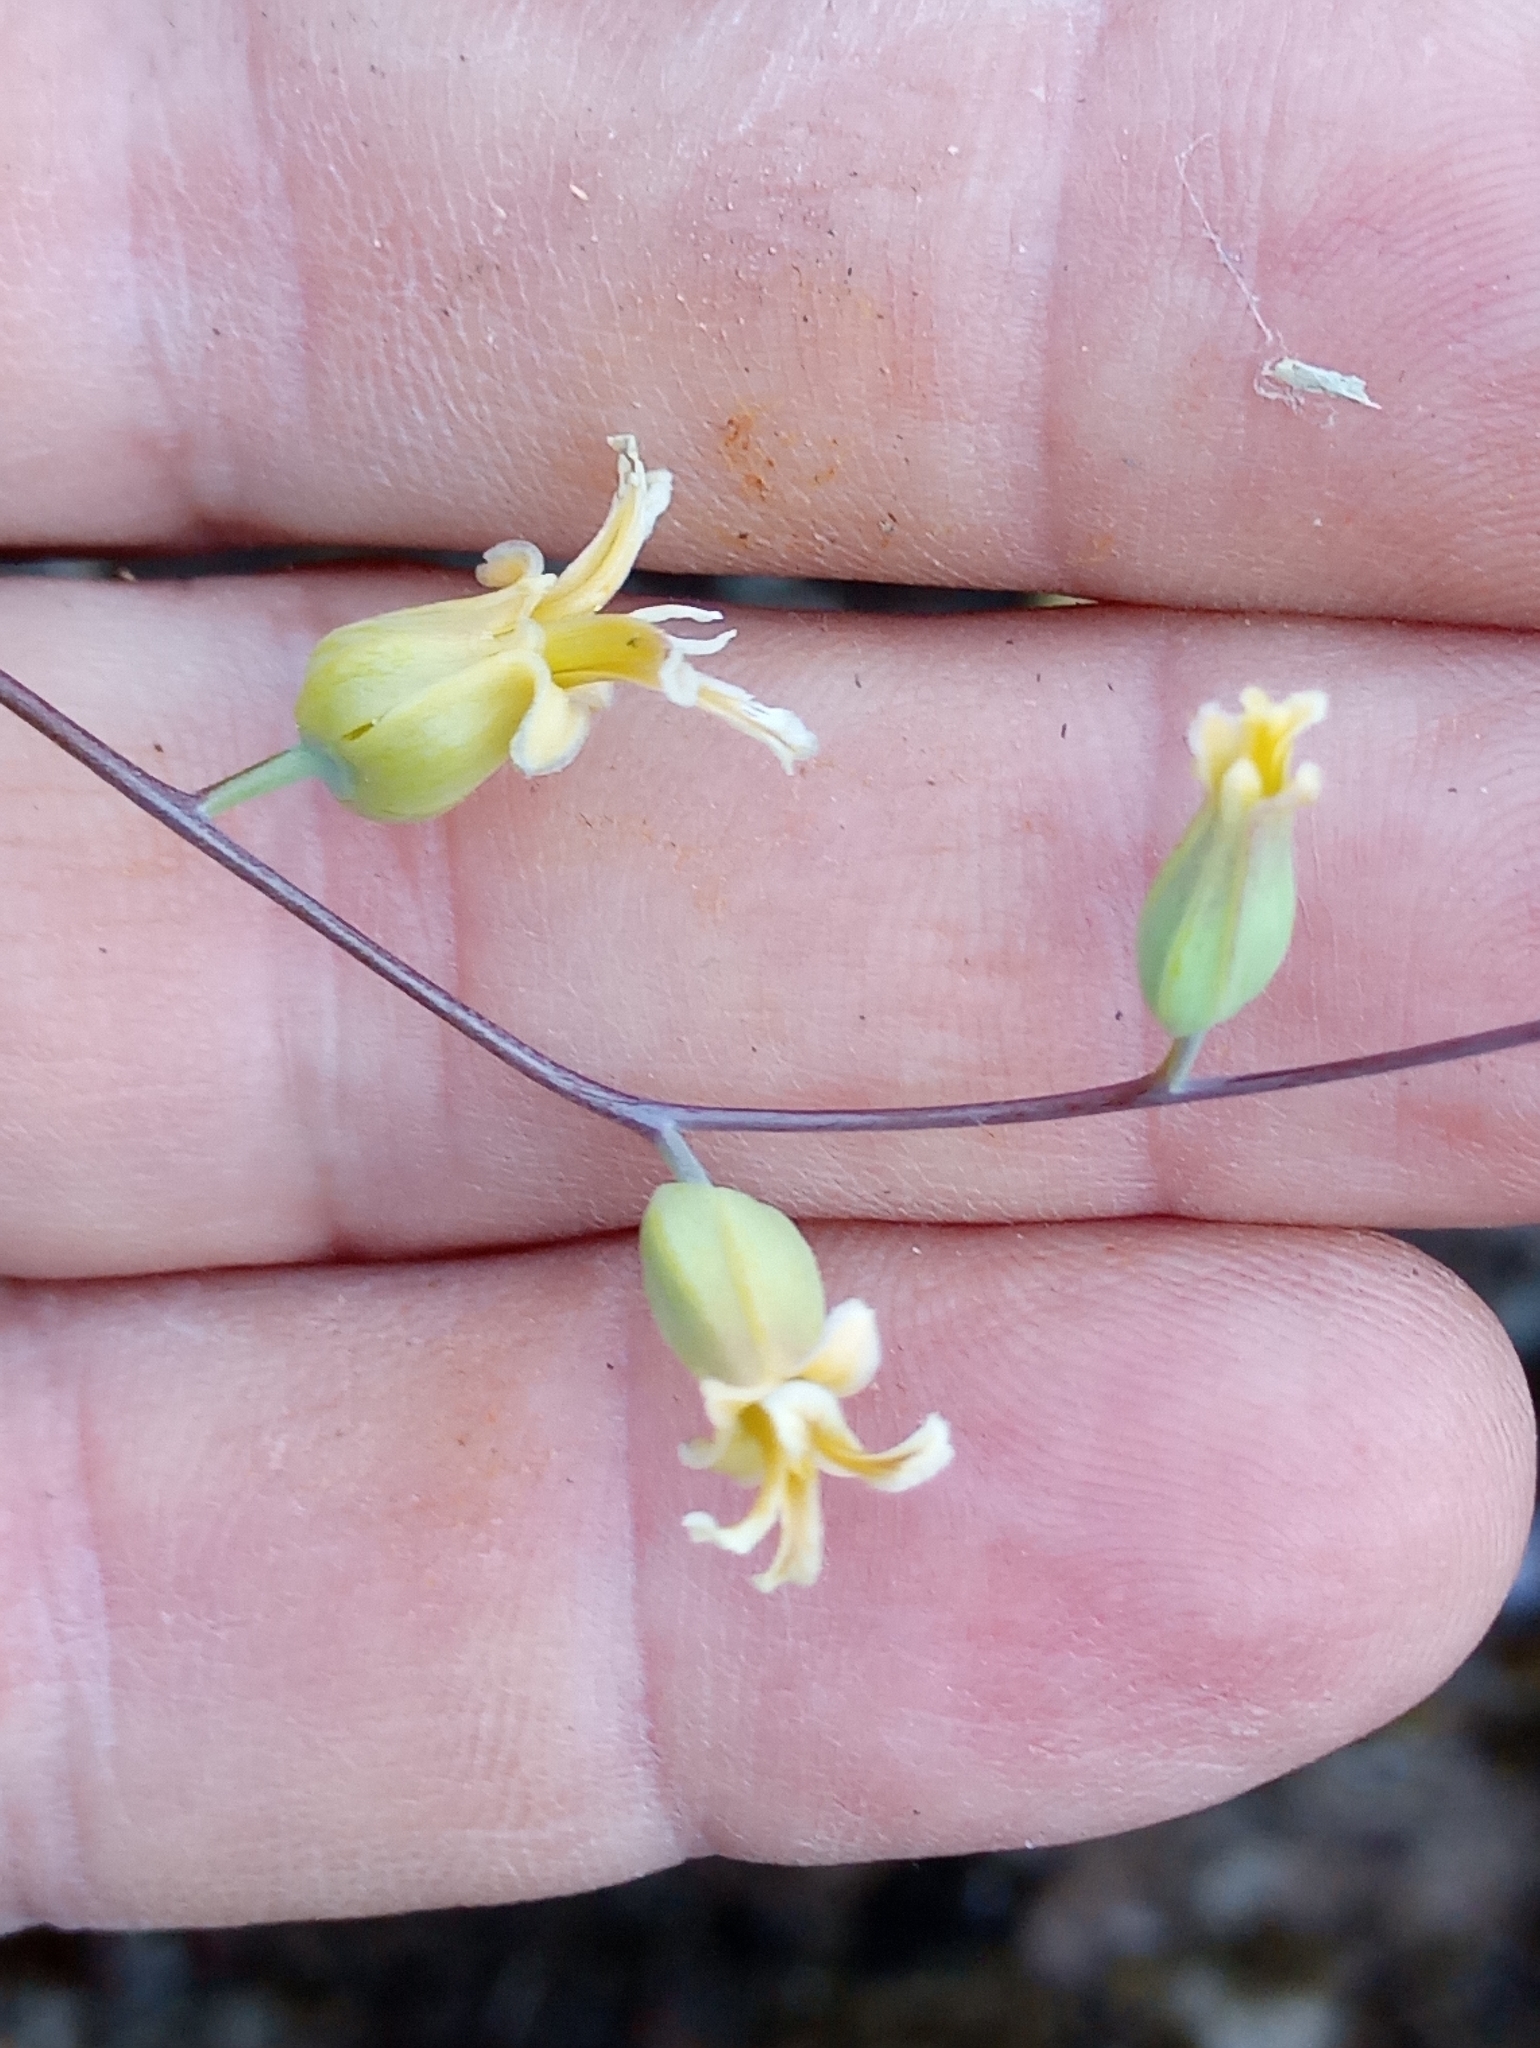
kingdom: Plantae
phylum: Tracheophyta
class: Magnoliopsida
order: Brassicales
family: Brassicaceae
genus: Streptanthus
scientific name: Streptanthus tortuosus
